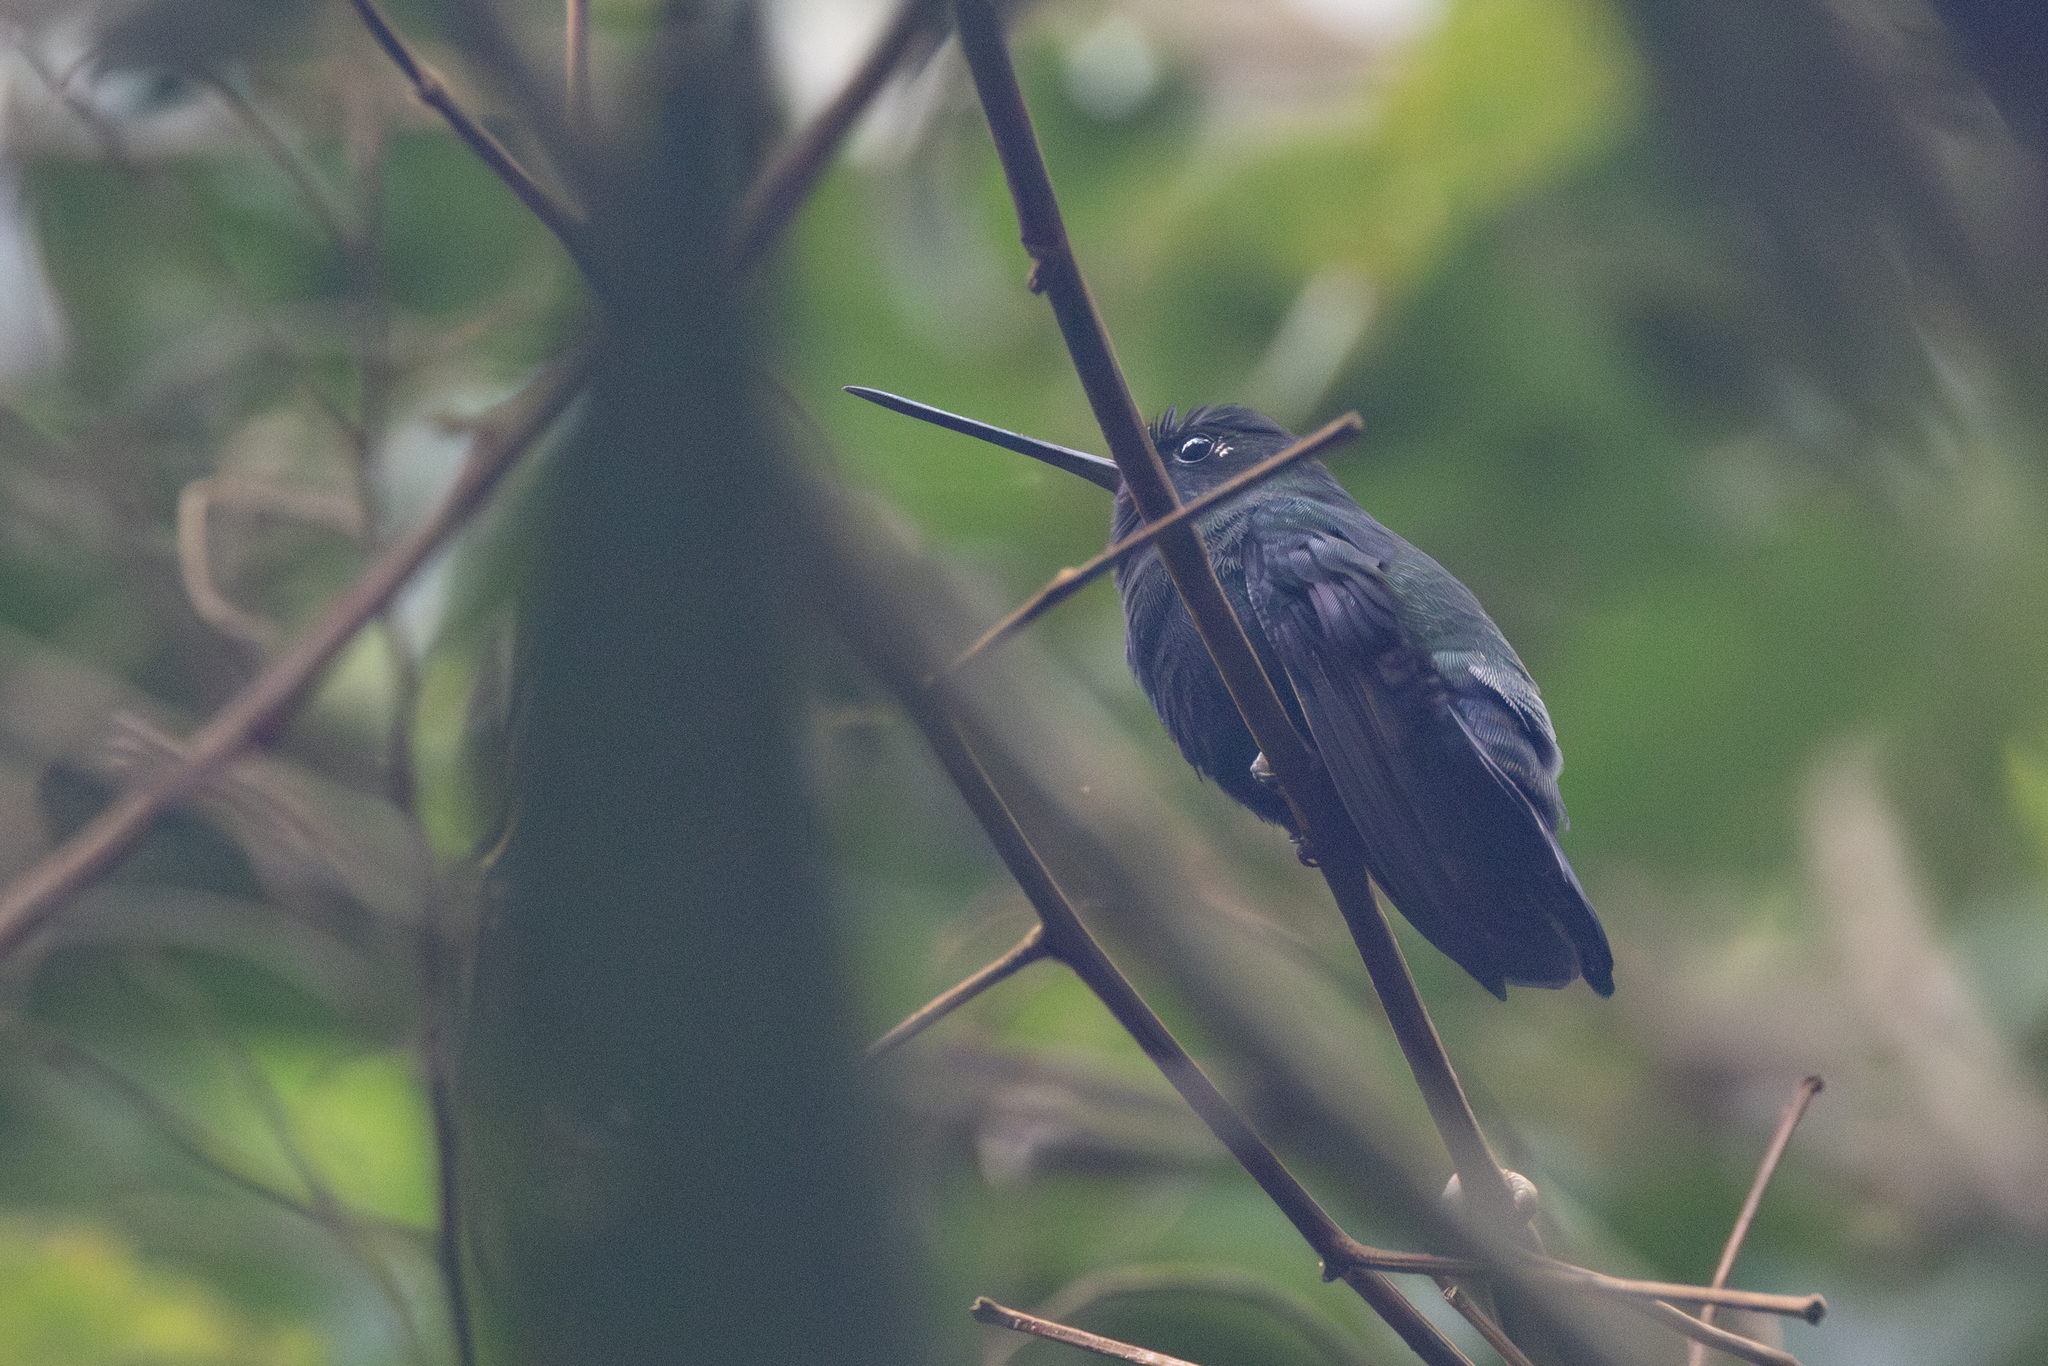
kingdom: Animalia
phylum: Chordata
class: Aves
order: Apodiformes
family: Trochilidae
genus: Doryfera
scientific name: Doryfera johannae
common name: Blue-fronted lancebill
